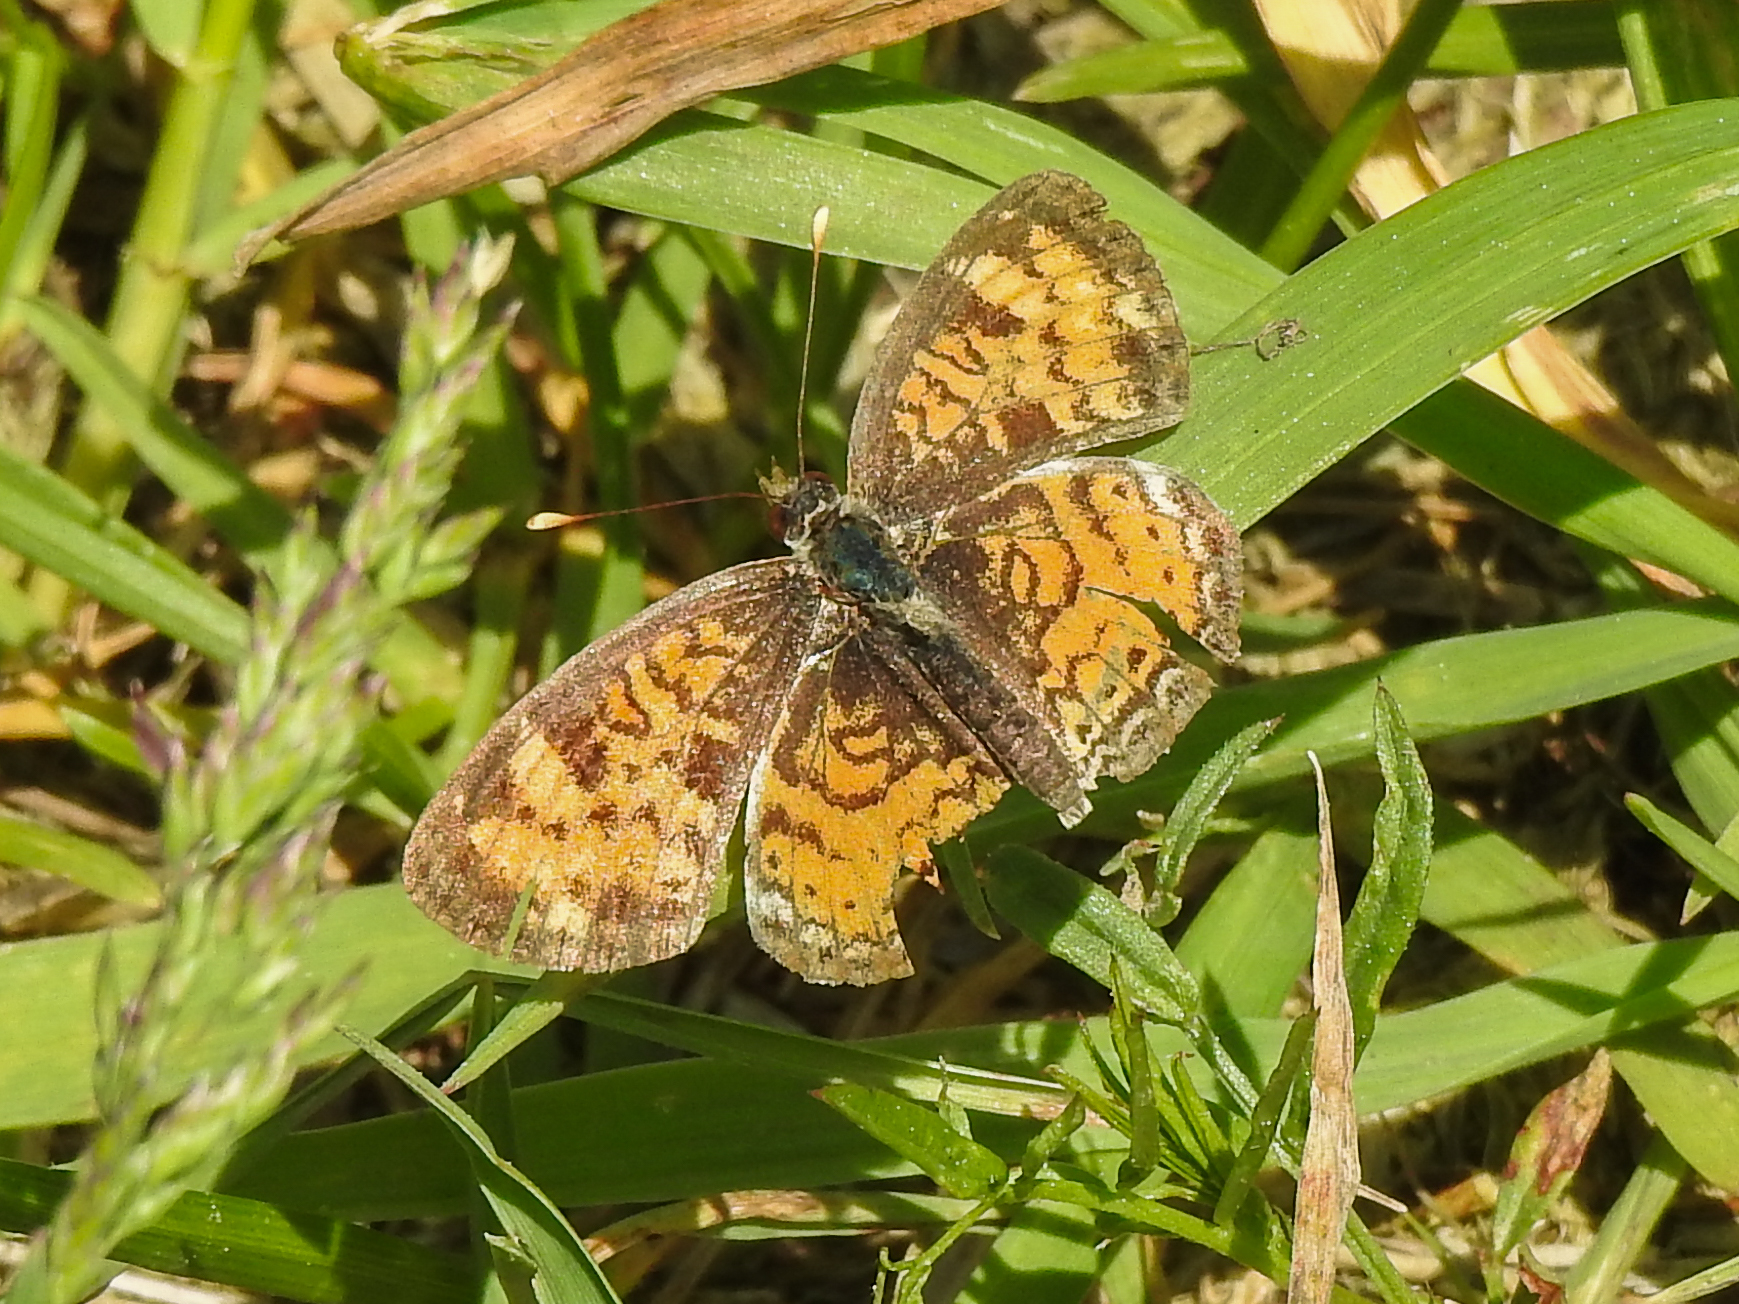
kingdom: Animalia
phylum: Arthropoda
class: Insecta
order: Lepidoptera
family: Nymphalidae
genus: Phyciodes
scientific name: Phyciodes tharos
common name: Pearl crescent
